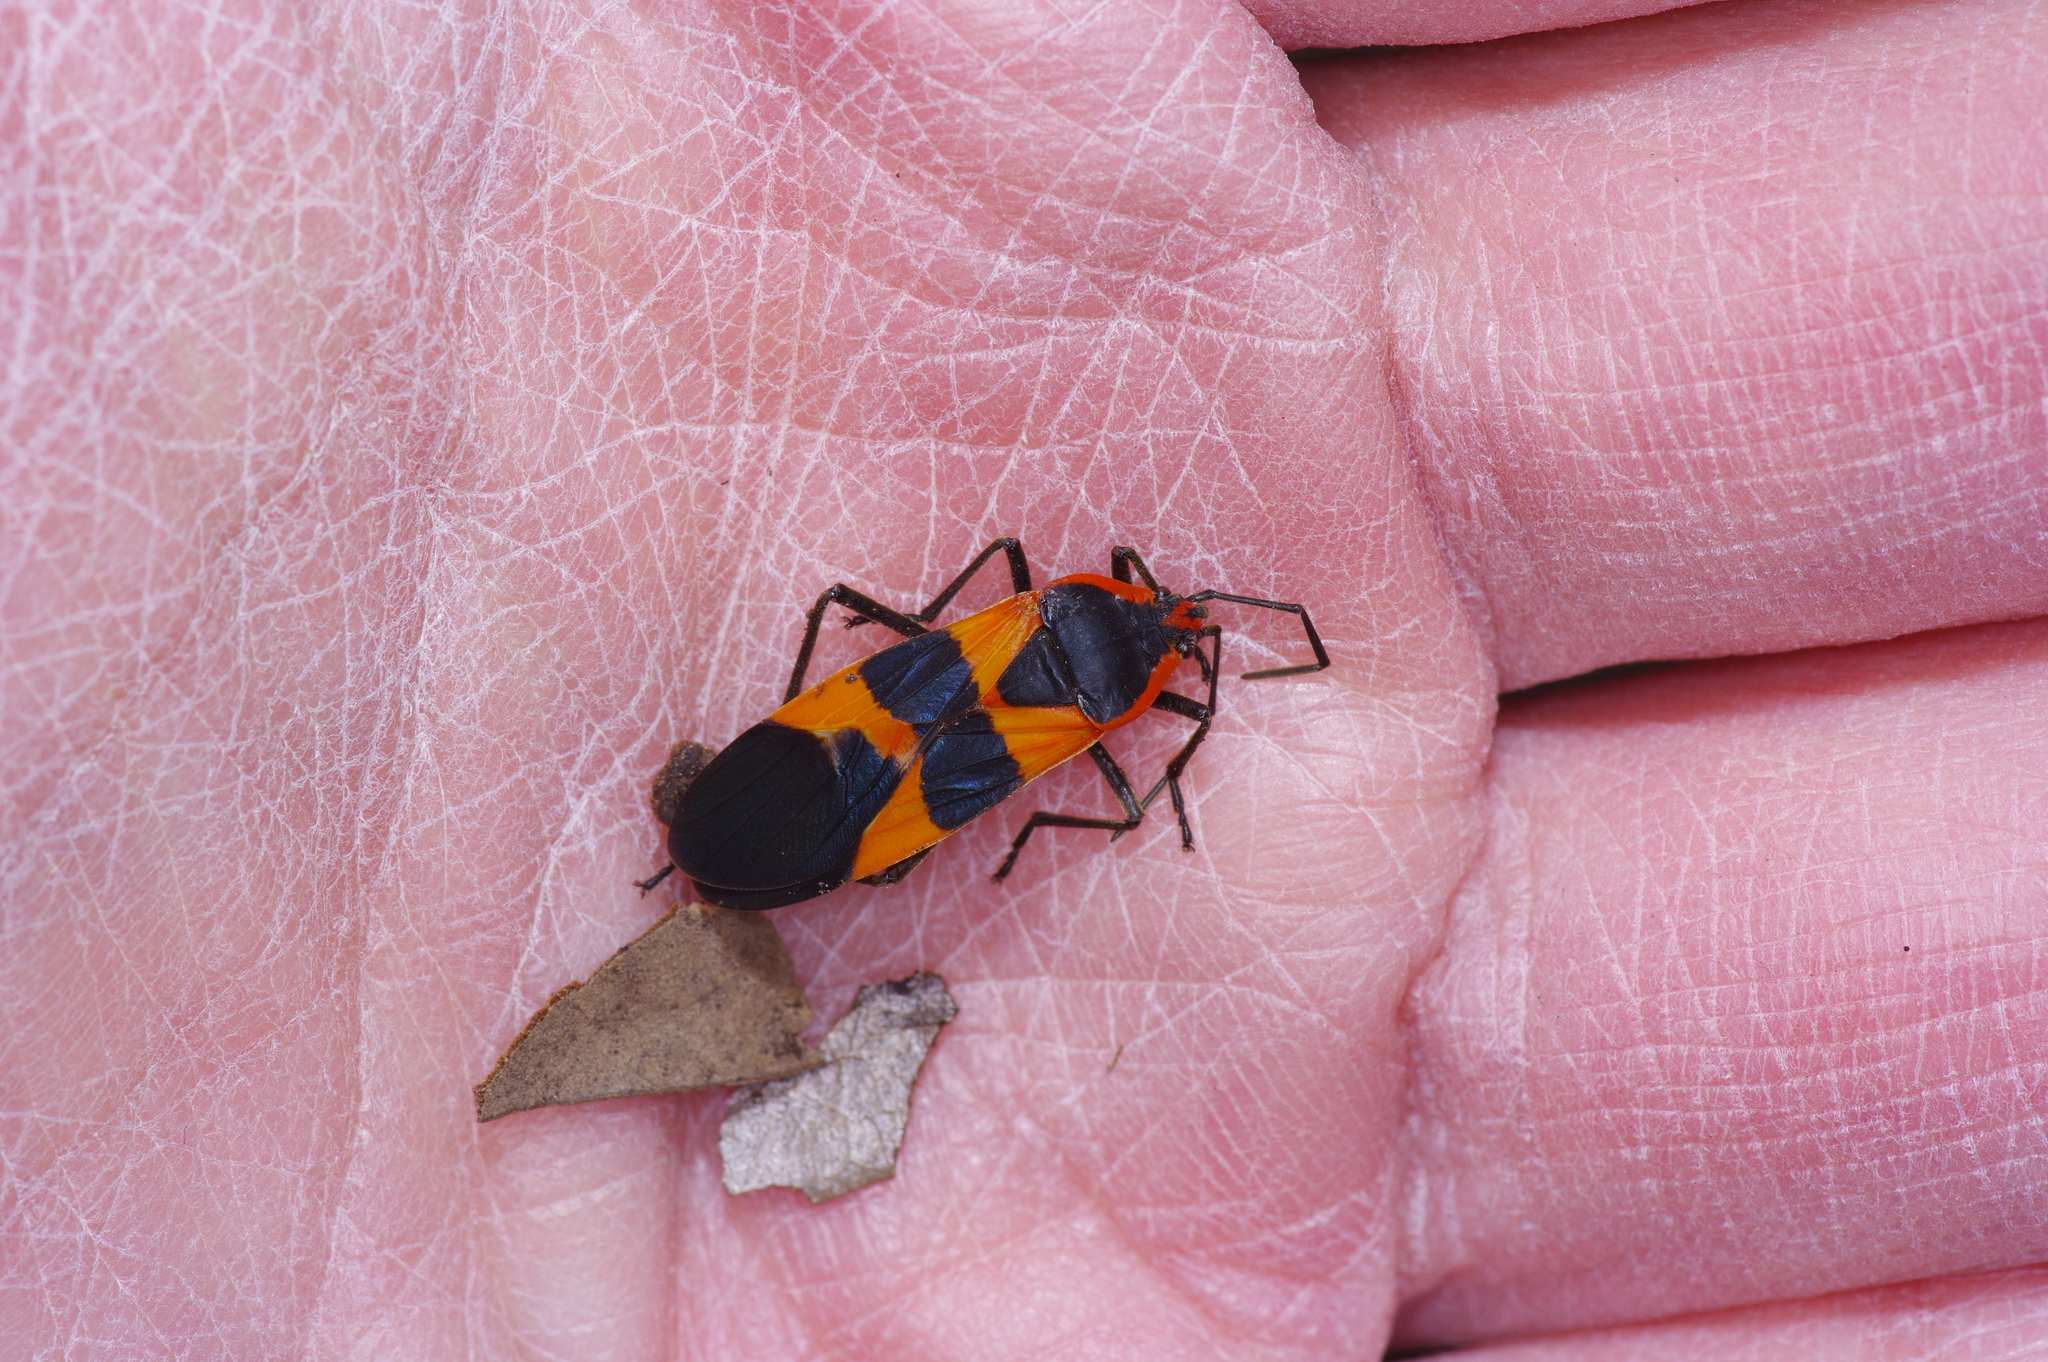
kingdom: Animalia
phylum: Arthropoda
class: Insecta
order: Hemiptera
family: Lygaeidae
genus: Oncopeltus
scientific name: Oncopeltus fasciatus
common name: Large milkweed bug
